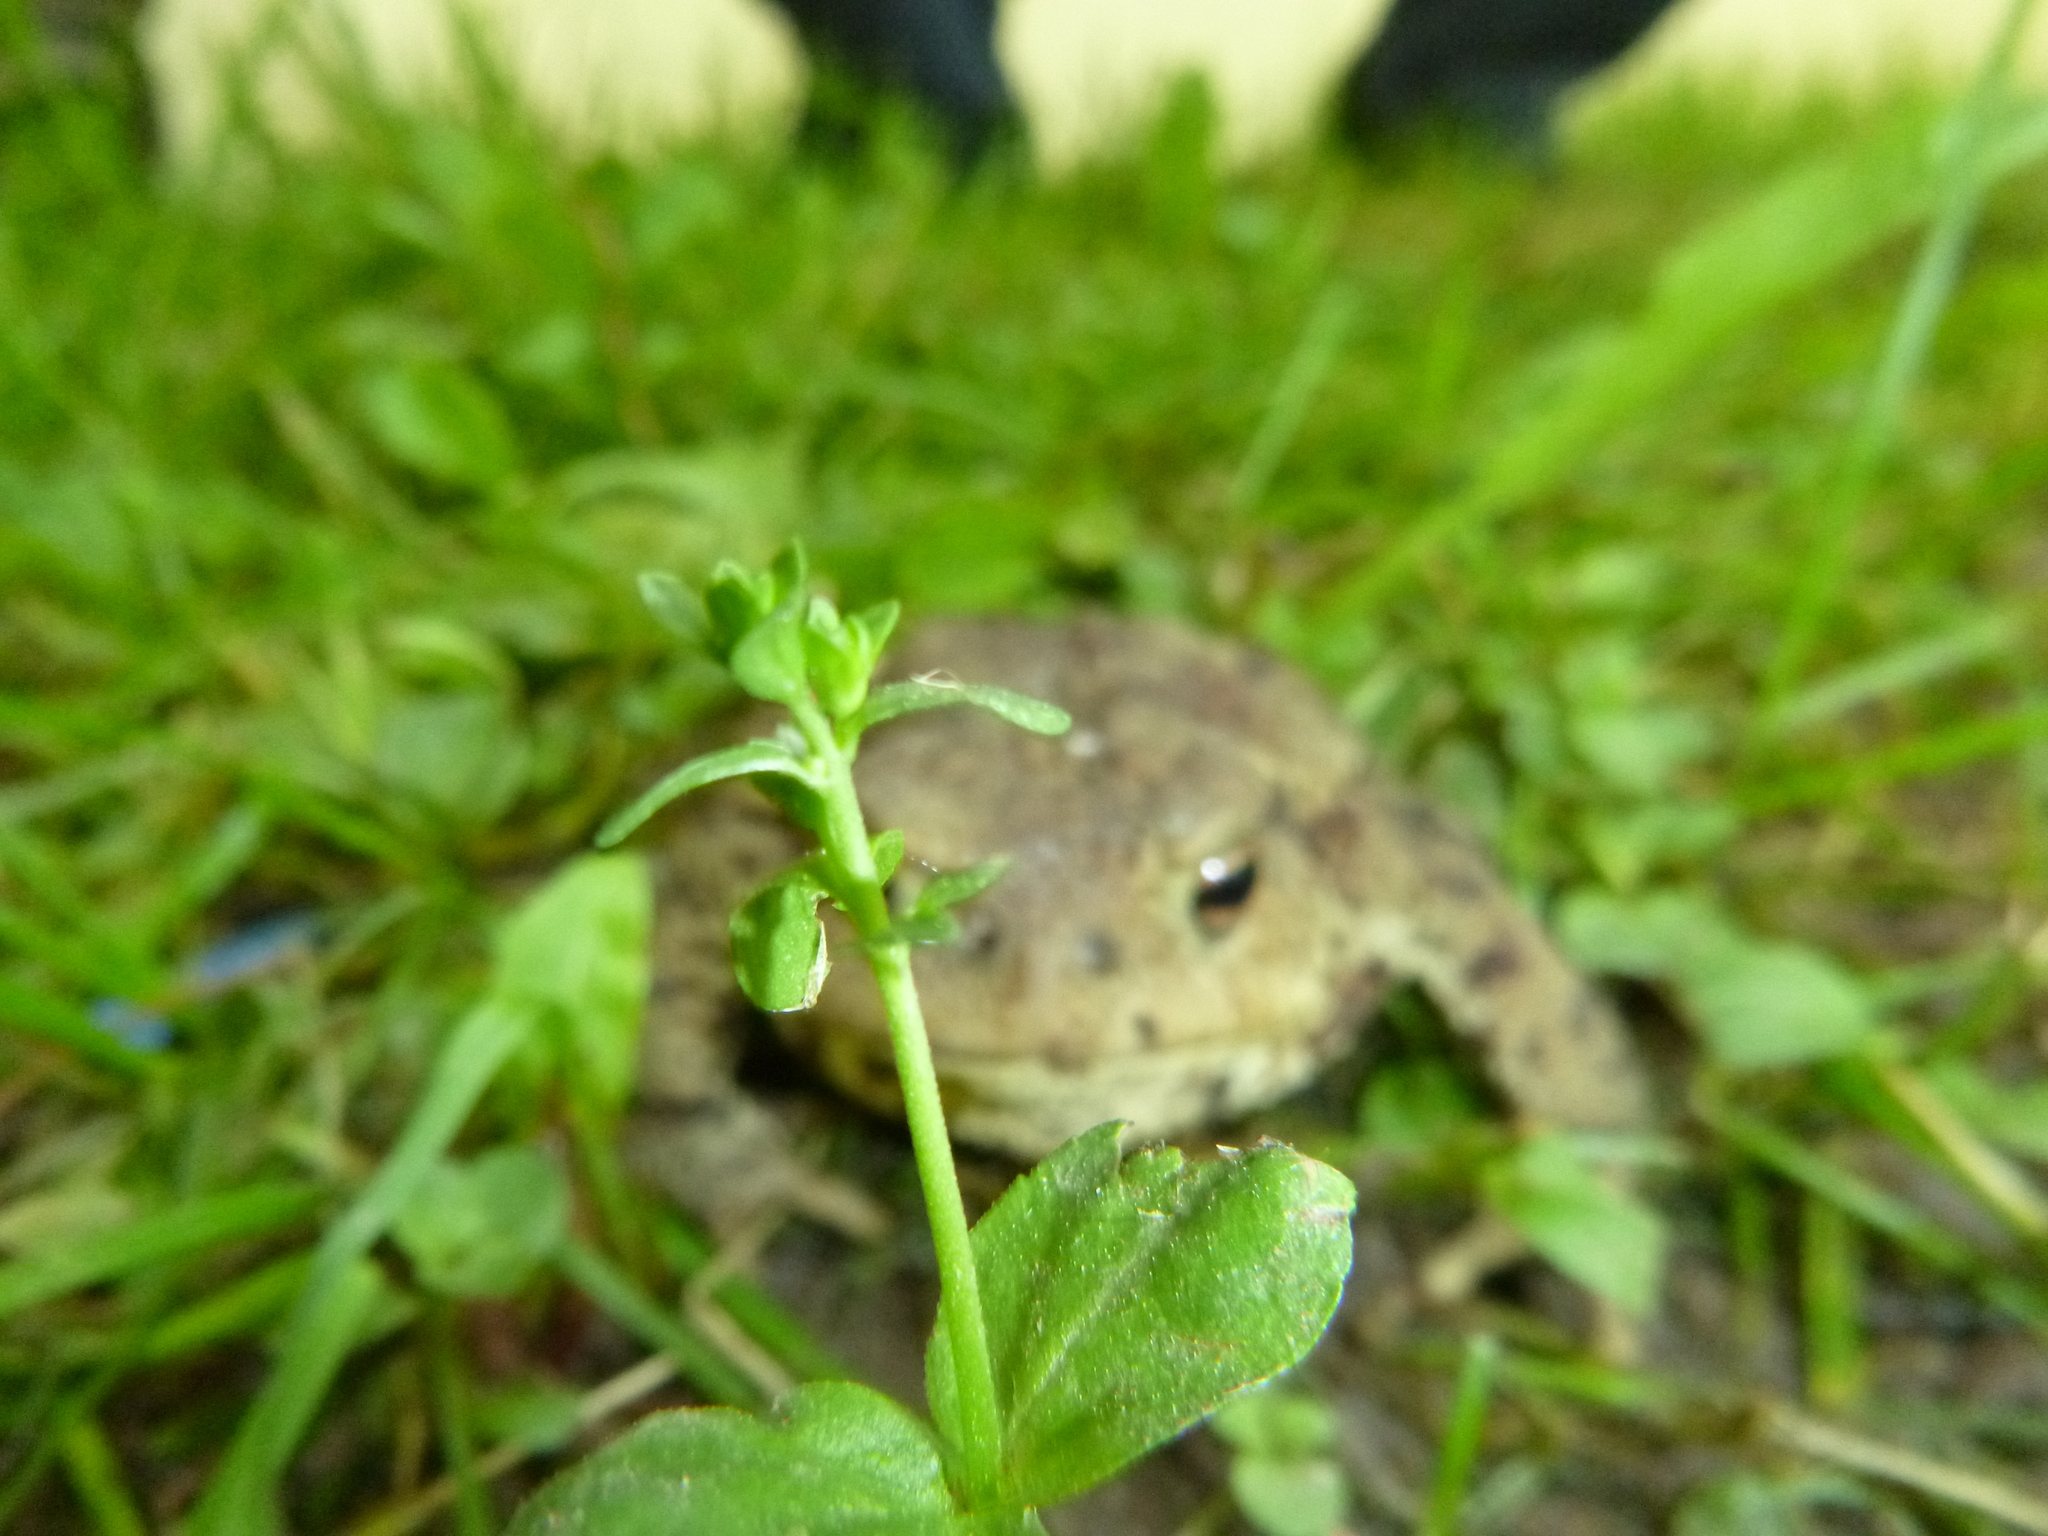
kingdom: Animalia
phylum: Chordata
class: Amphibia
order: Anura
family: Bufonidae
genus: Bufo
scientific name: Bufo bufo
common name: Common toad
